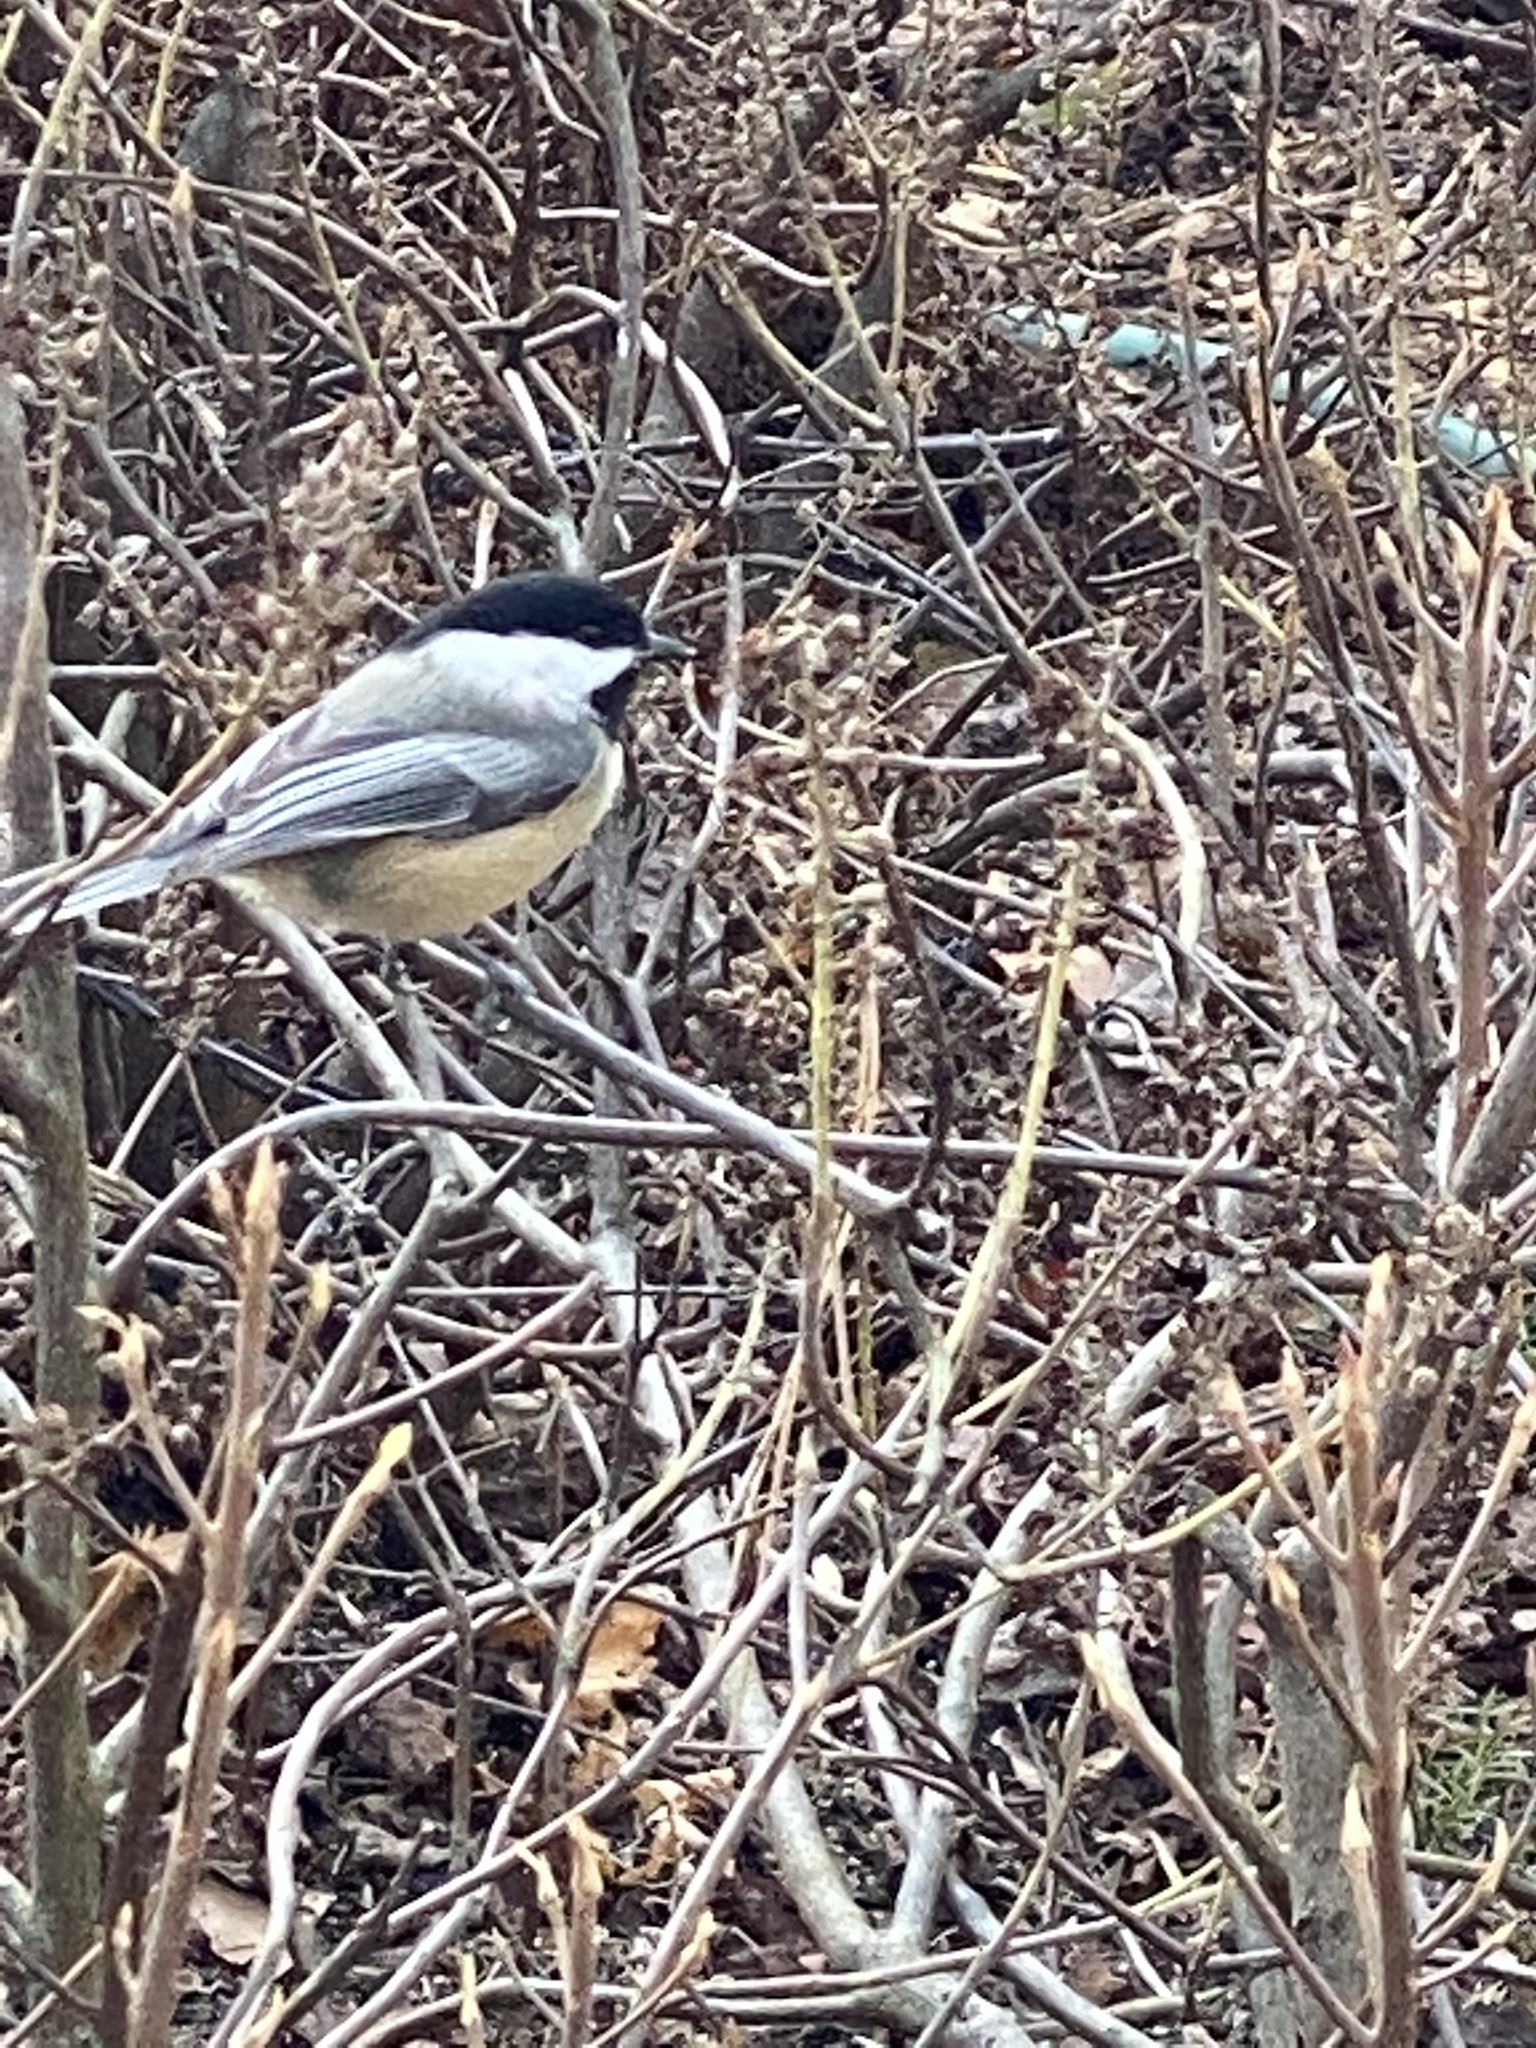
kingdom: Animalia
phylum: Chordata
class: Aves
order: Passeriformes
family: Paridae
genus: Poecile
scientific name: Poecile atricapillus
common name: Black-capped chickadee
